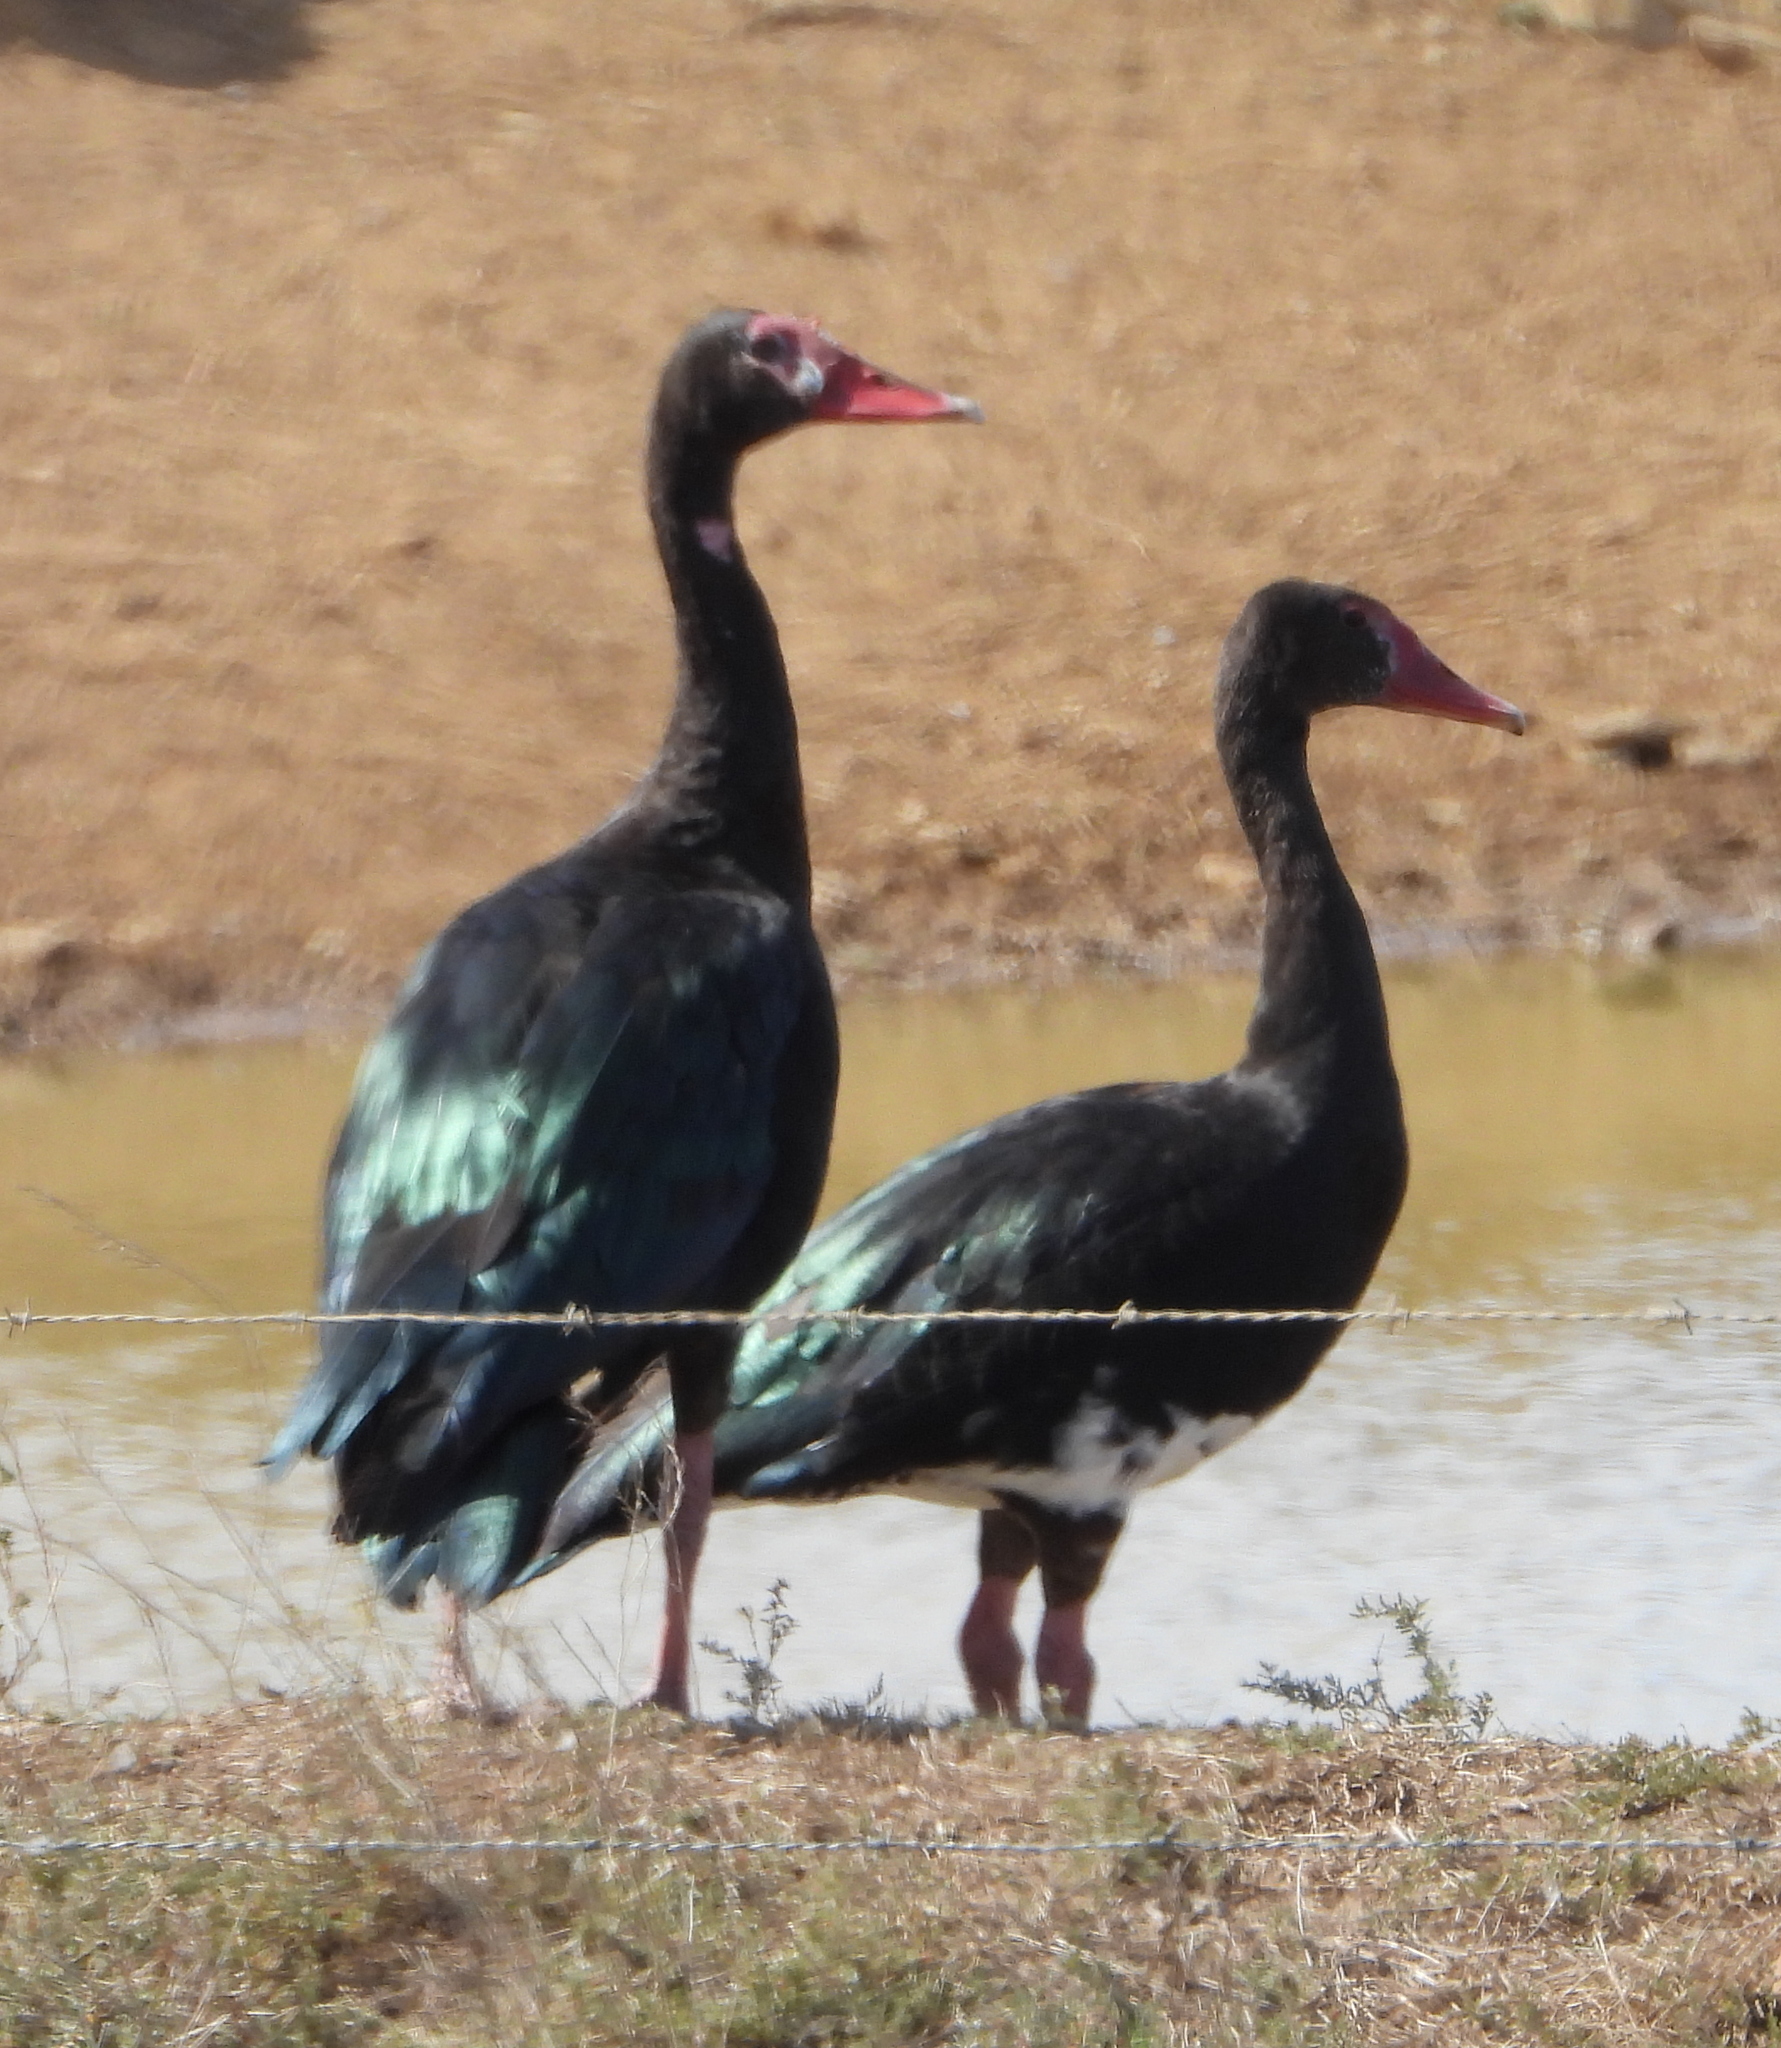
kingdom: Animalia
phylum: Chordata
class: Aves
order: Anseriformes
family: Anatidae
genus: Plectropterus
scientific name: Plectropterus gambensis
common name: Spur-winged goose
